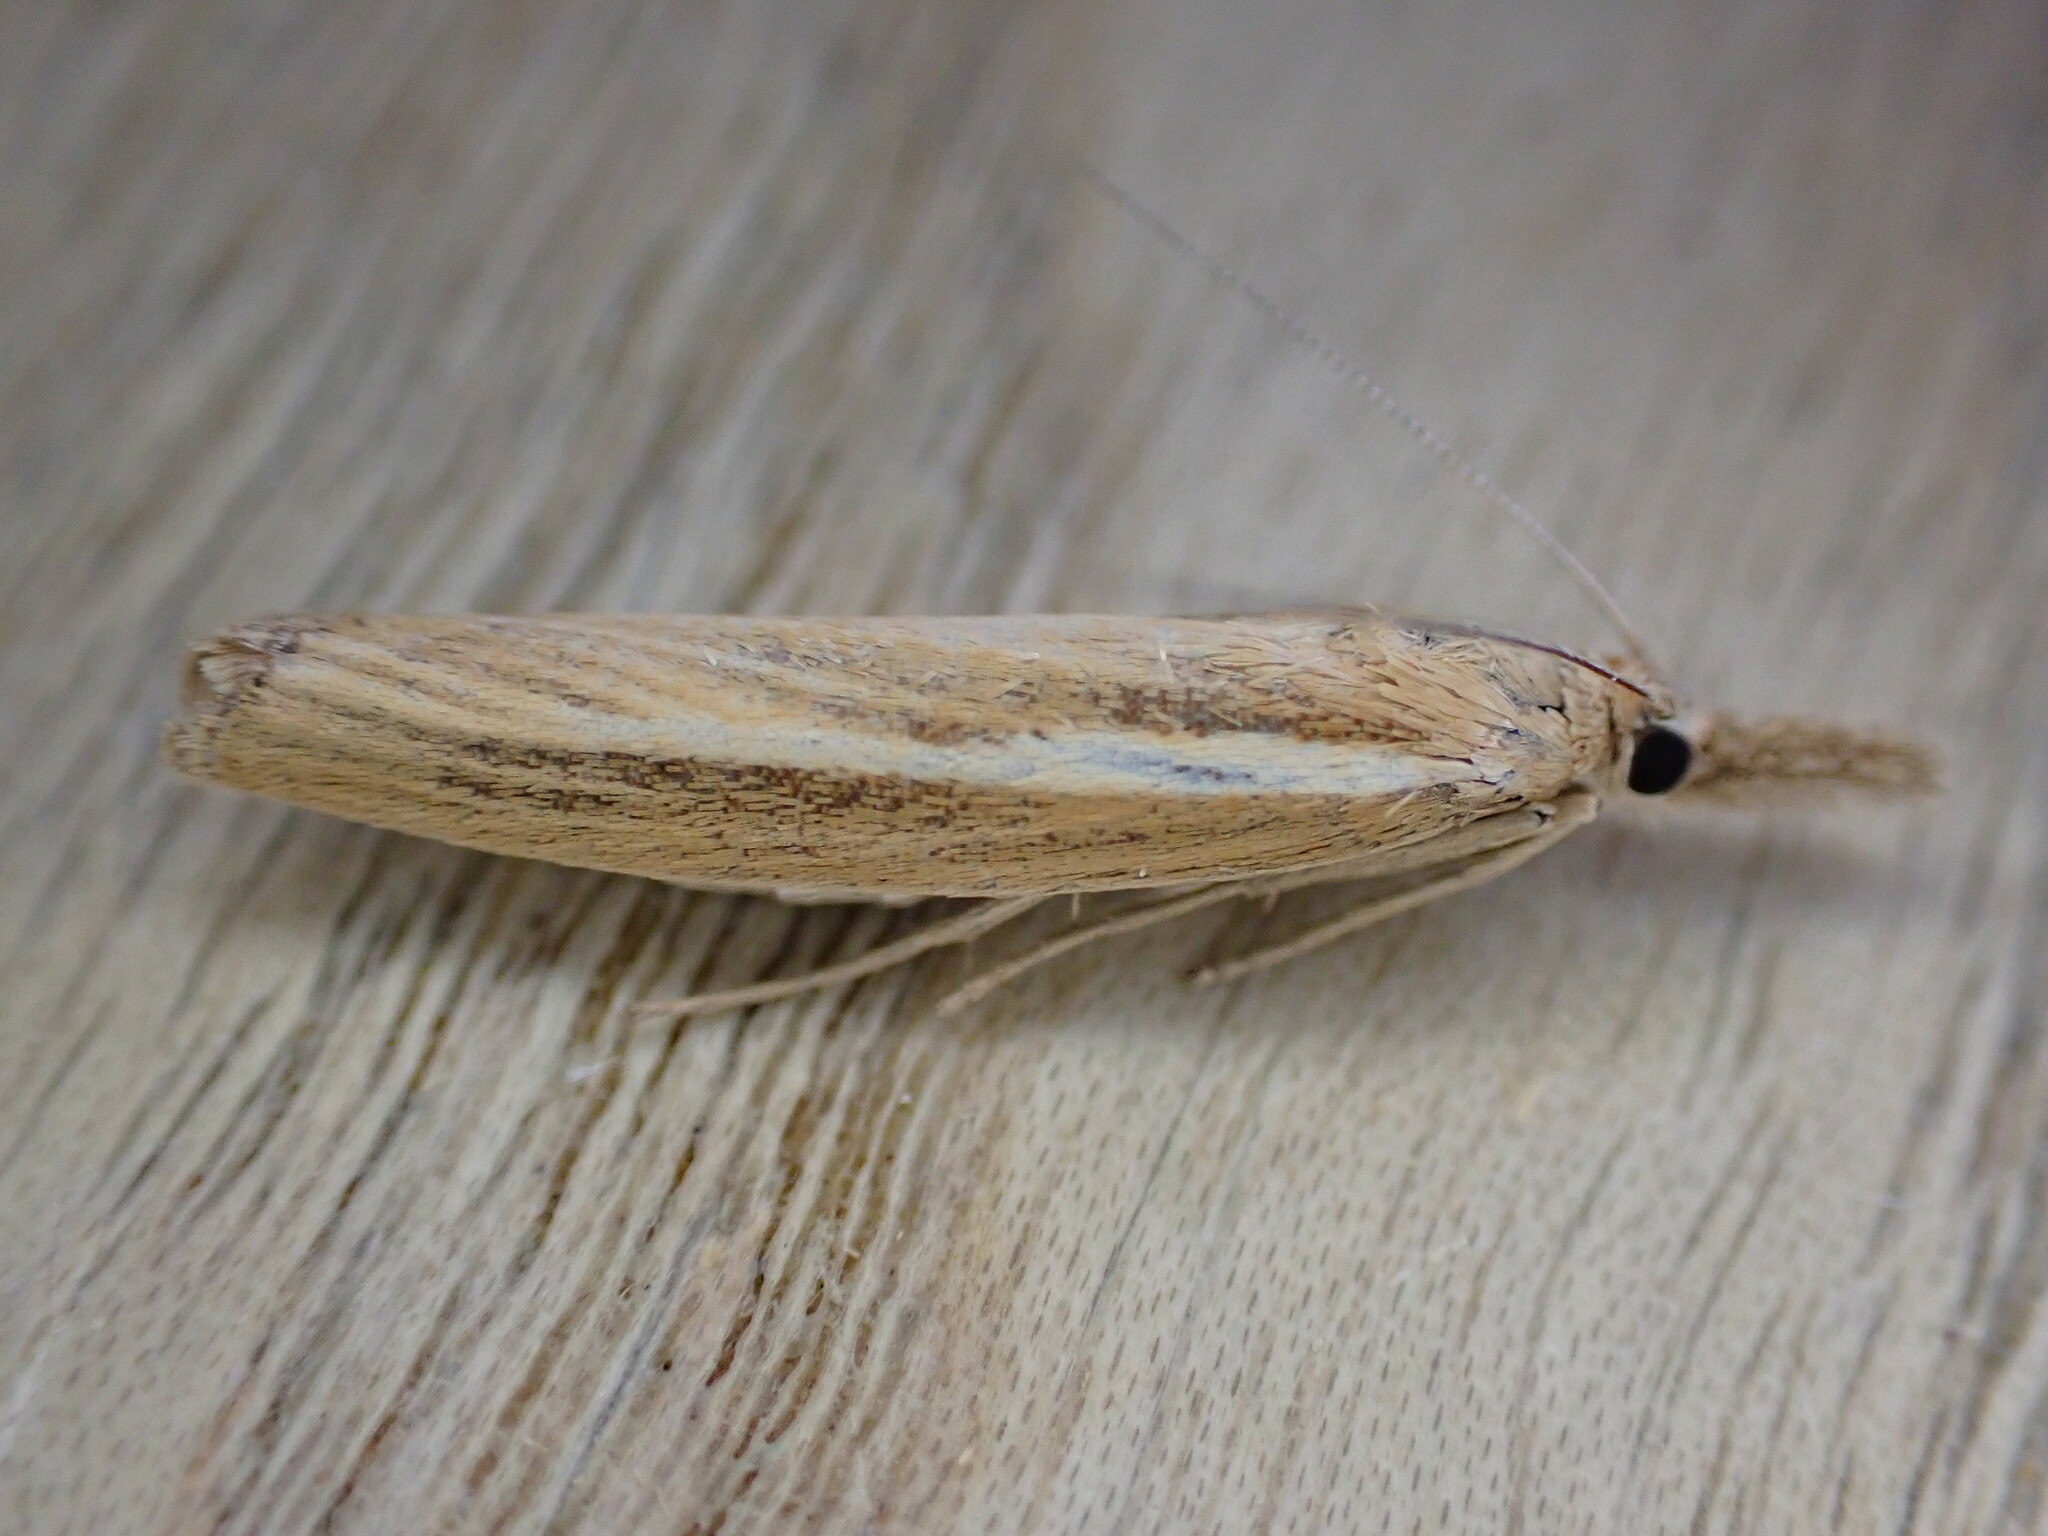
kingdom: Animalia
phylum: Arthropoda
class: Insecta
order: Lepidoptera
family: Crambidae
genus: Agriphila
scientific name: Agriphila tristellus
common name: Common grass-veneer
